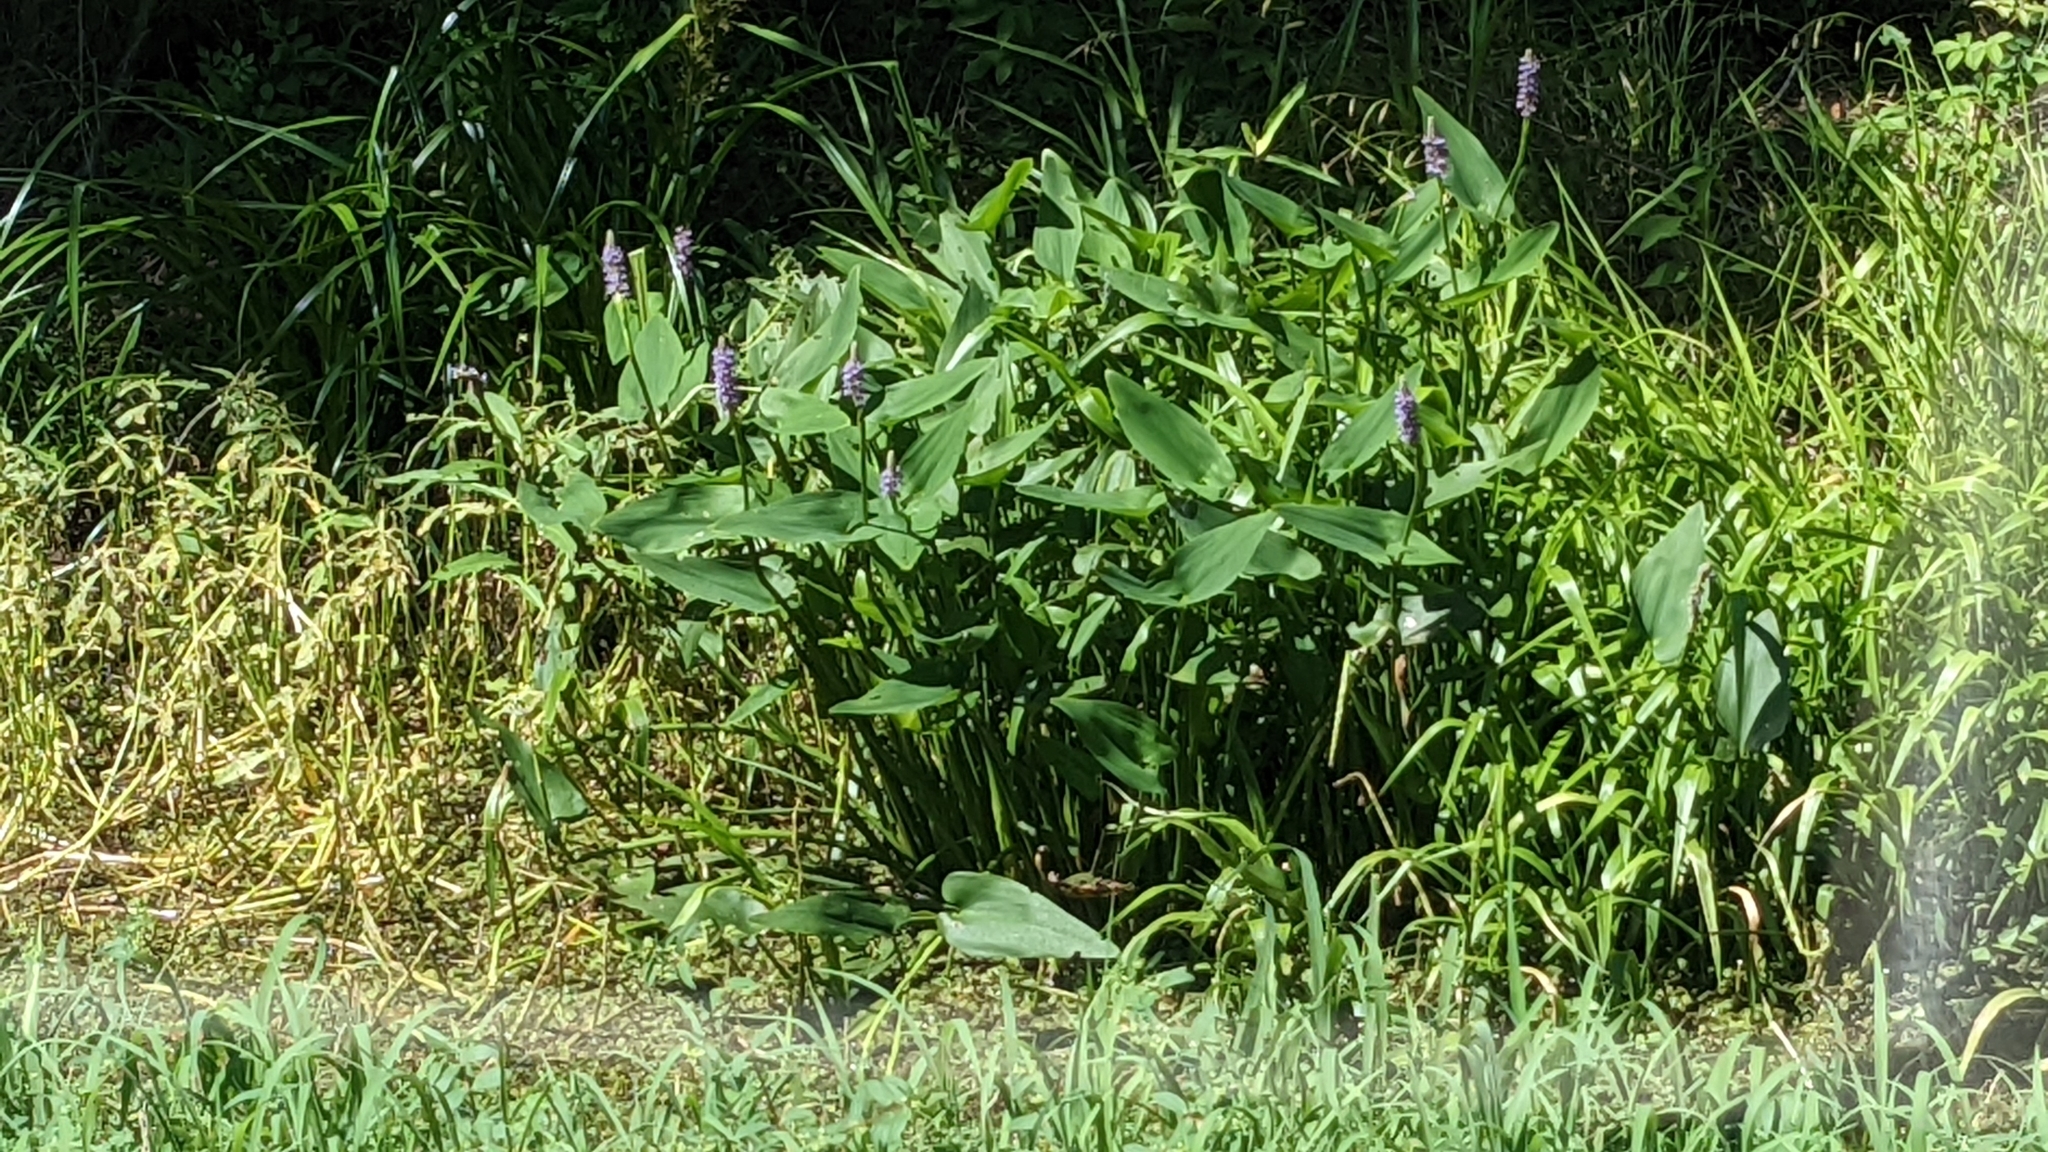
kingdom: Plantae
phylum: Tracheophyta
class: Liliopsida
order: Commelinales
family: Pontederiaceae
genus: Pontederia
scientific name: Pontederia cordata
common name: Pickerelweed
